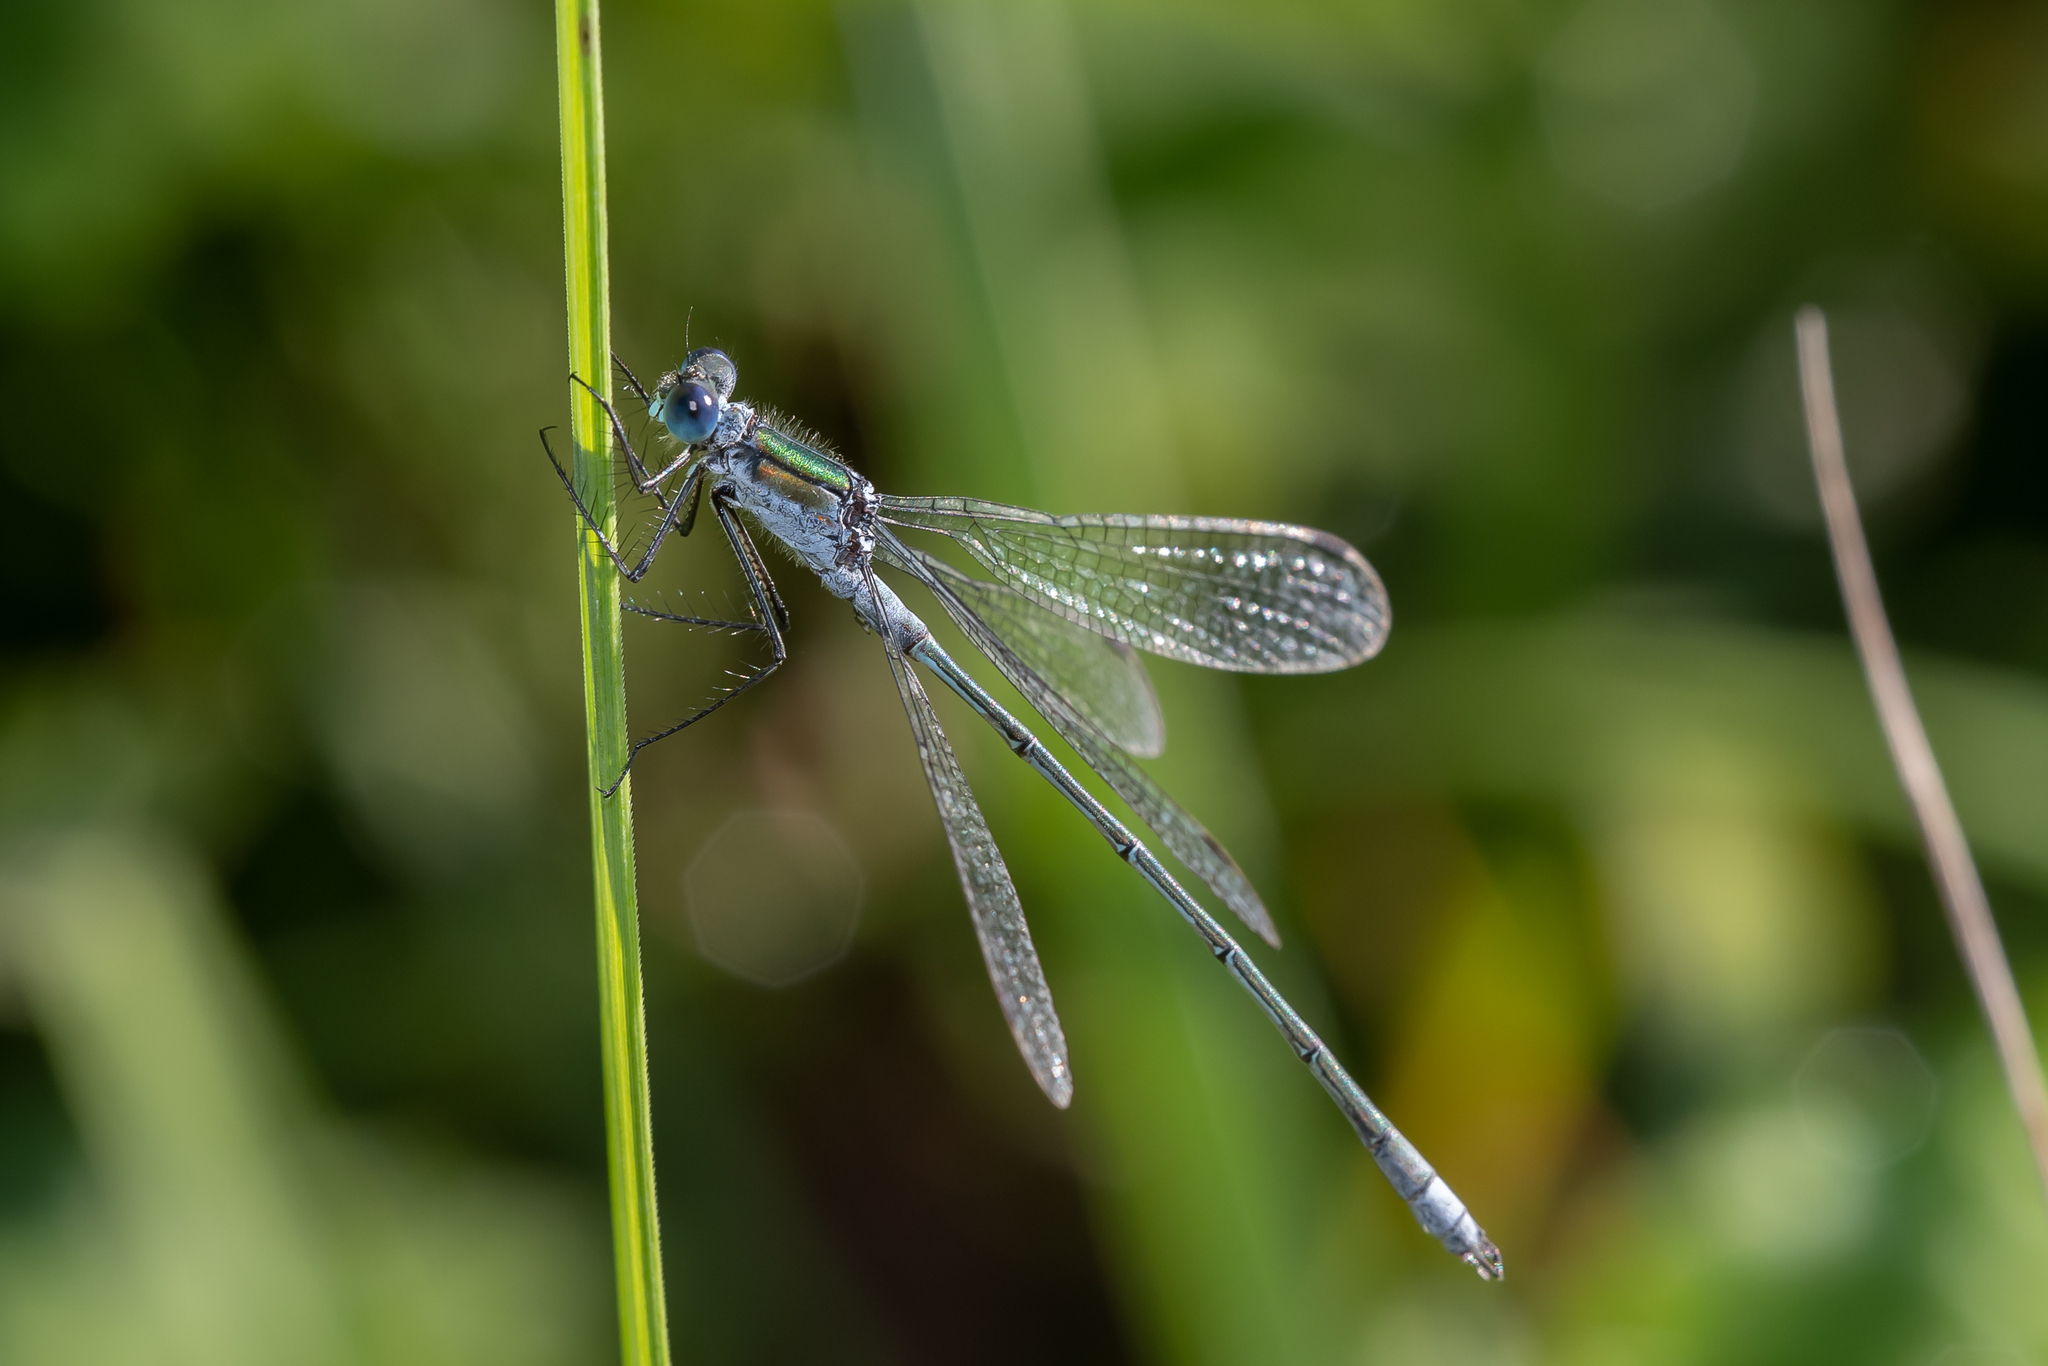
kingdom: Animalia
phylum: Arthropoda
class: Insecta
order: Odonata
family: Lestidae
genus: Lestes
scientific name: Lestes sponsa
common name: Common spreadwing
